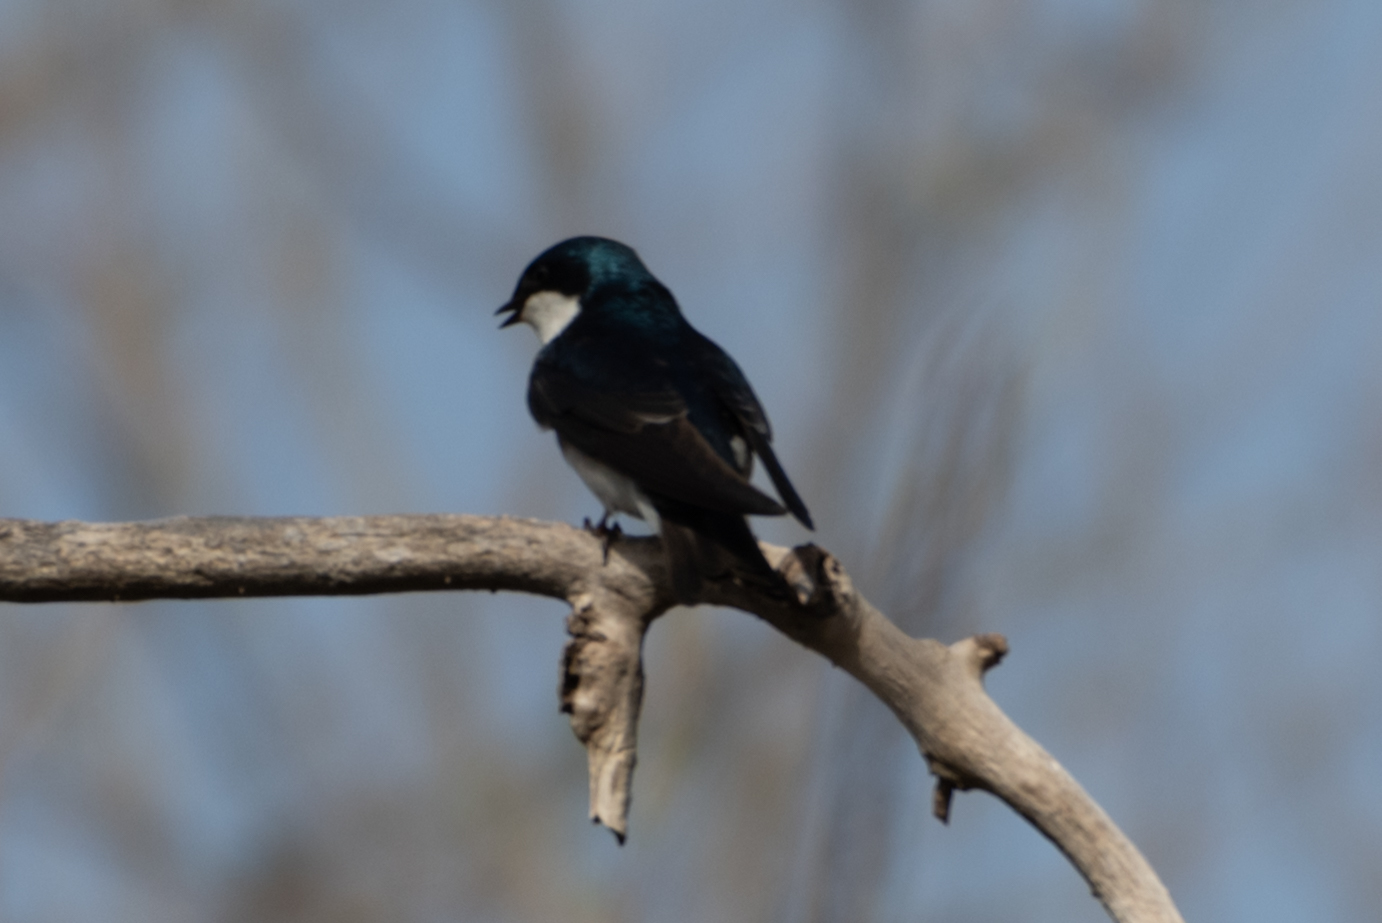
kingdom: Animalia
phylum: Chordata
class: Aves
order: Passeriformes
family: Hirundinidae
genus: Tachycineta
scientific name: Tachycineta bicolor
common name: Tree swallow
